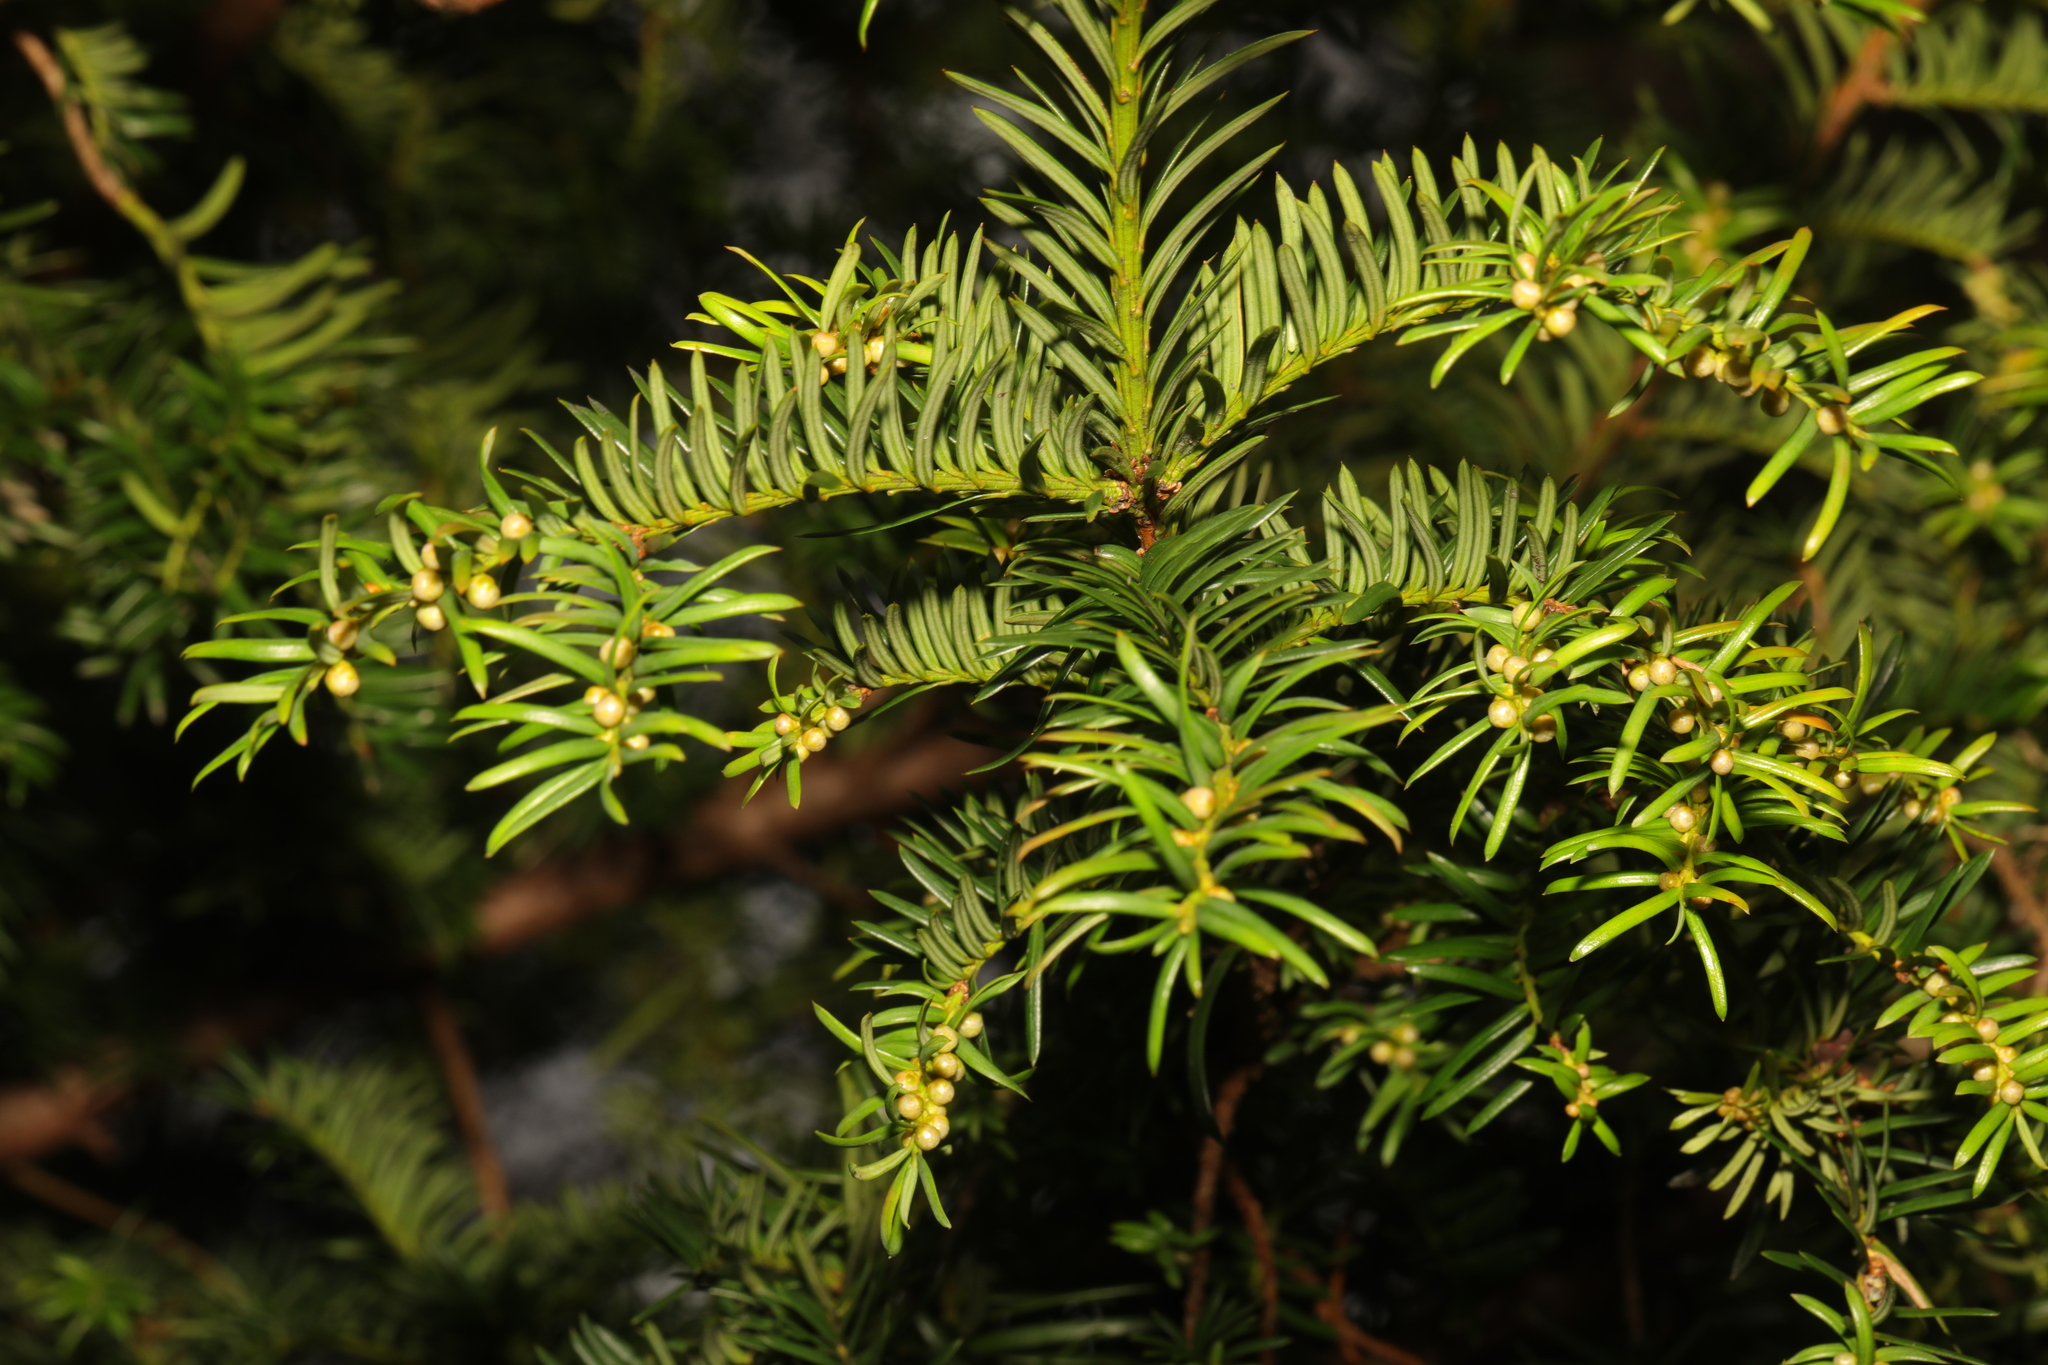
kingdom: Plantae
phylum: Tracheophyta
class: Pinopsida
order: Pinales
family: Taxaceae
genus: Taxus
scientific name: Taxus baccata
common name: Yew
